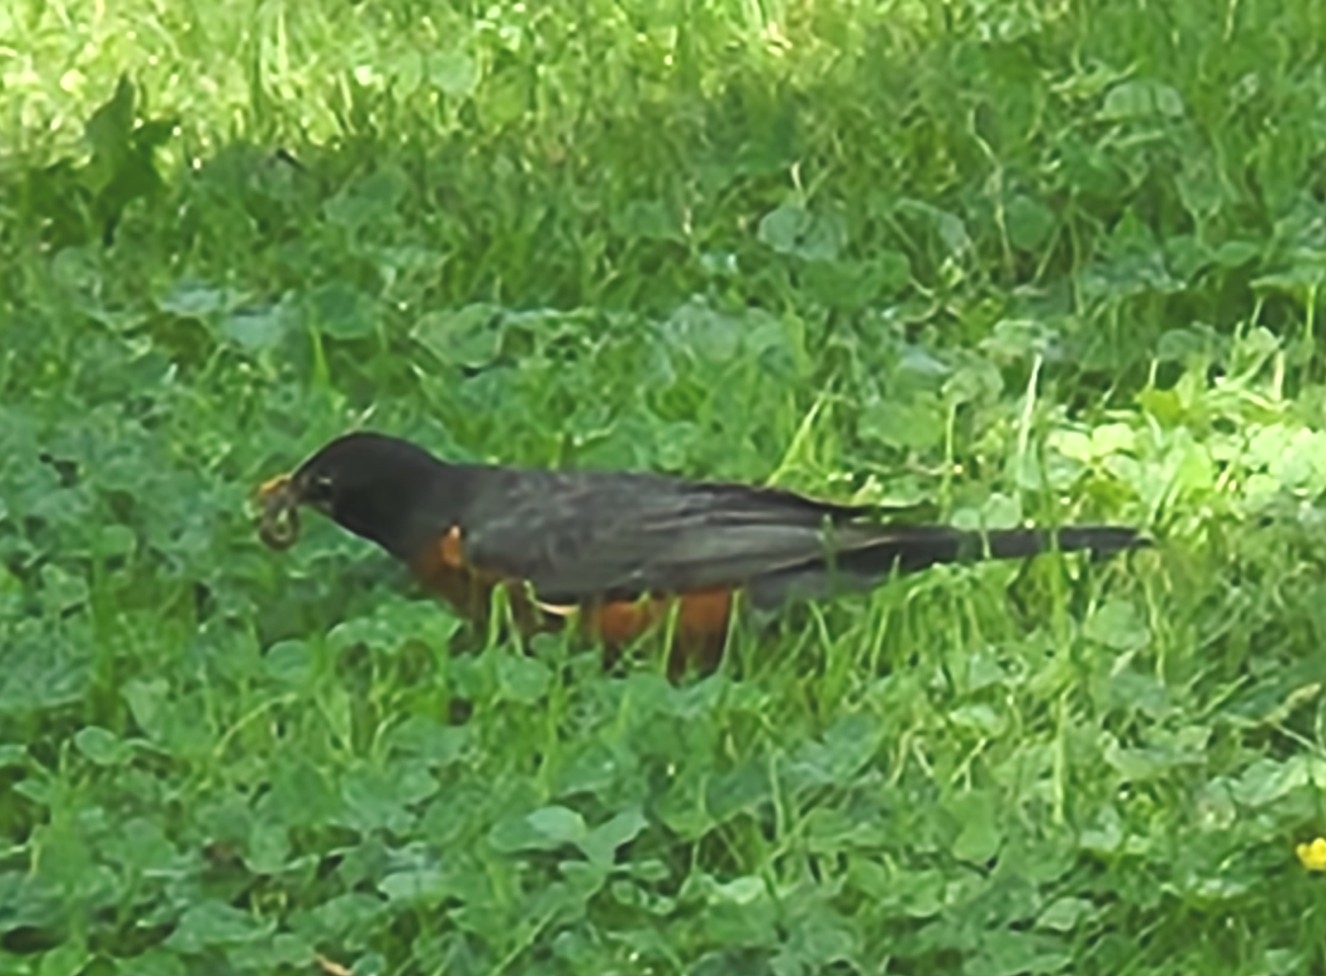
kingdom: Animalia
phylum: Chordata
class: Aves
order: Passeriformes
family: Turdidae
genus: Turdus
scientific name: Turdus migratorius
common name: American robin
